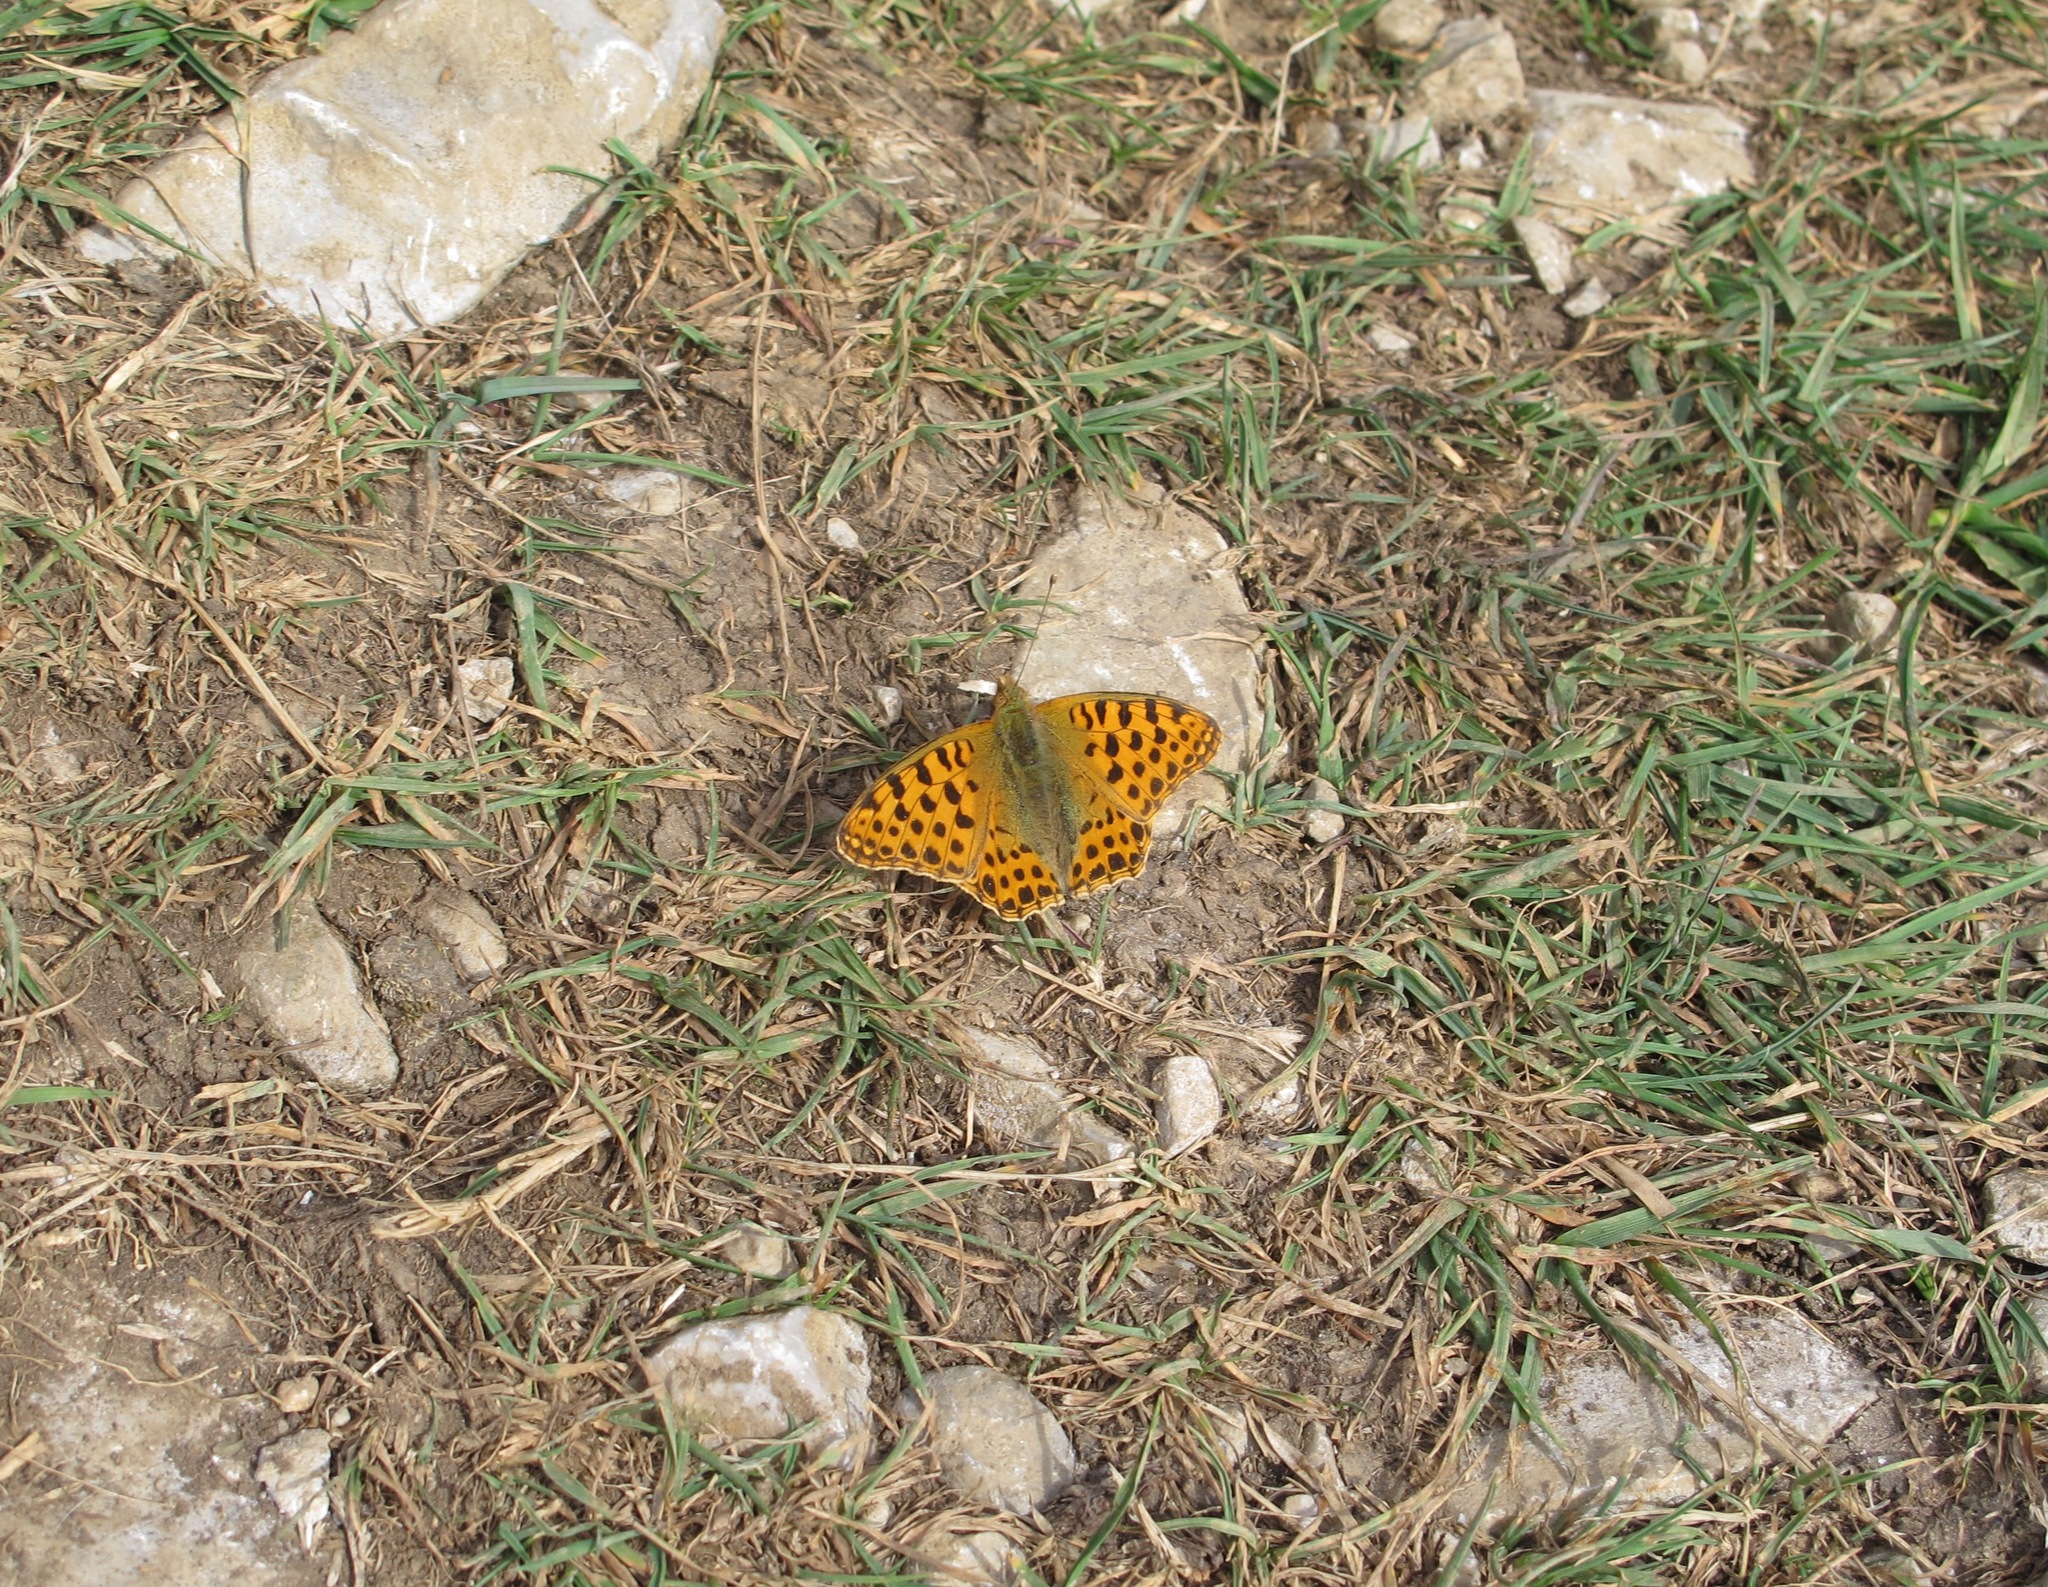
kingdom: Animalia
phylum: Arthropoda
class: Insecta
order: Lepidoptera
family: Nymphalidae
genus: Issoria
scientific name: Issoria lathonia
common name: Queen of spain fritillary
